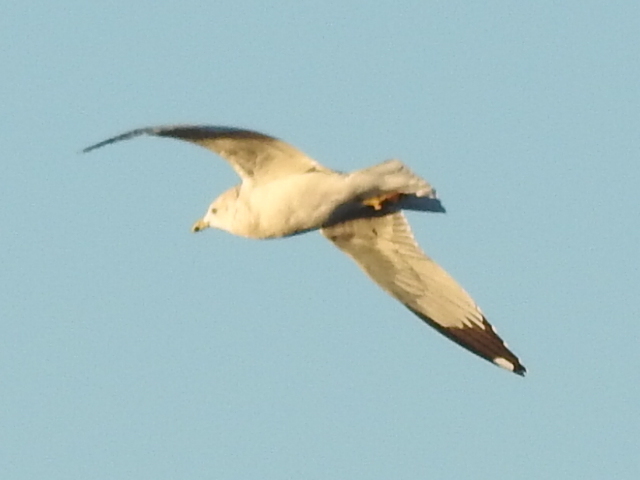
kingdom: Animalia
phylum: Chordata
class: Aves
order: Charadriiformes
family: Laridae
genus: Larus
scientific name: Larus delawarensis
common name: Ring-billed gull
